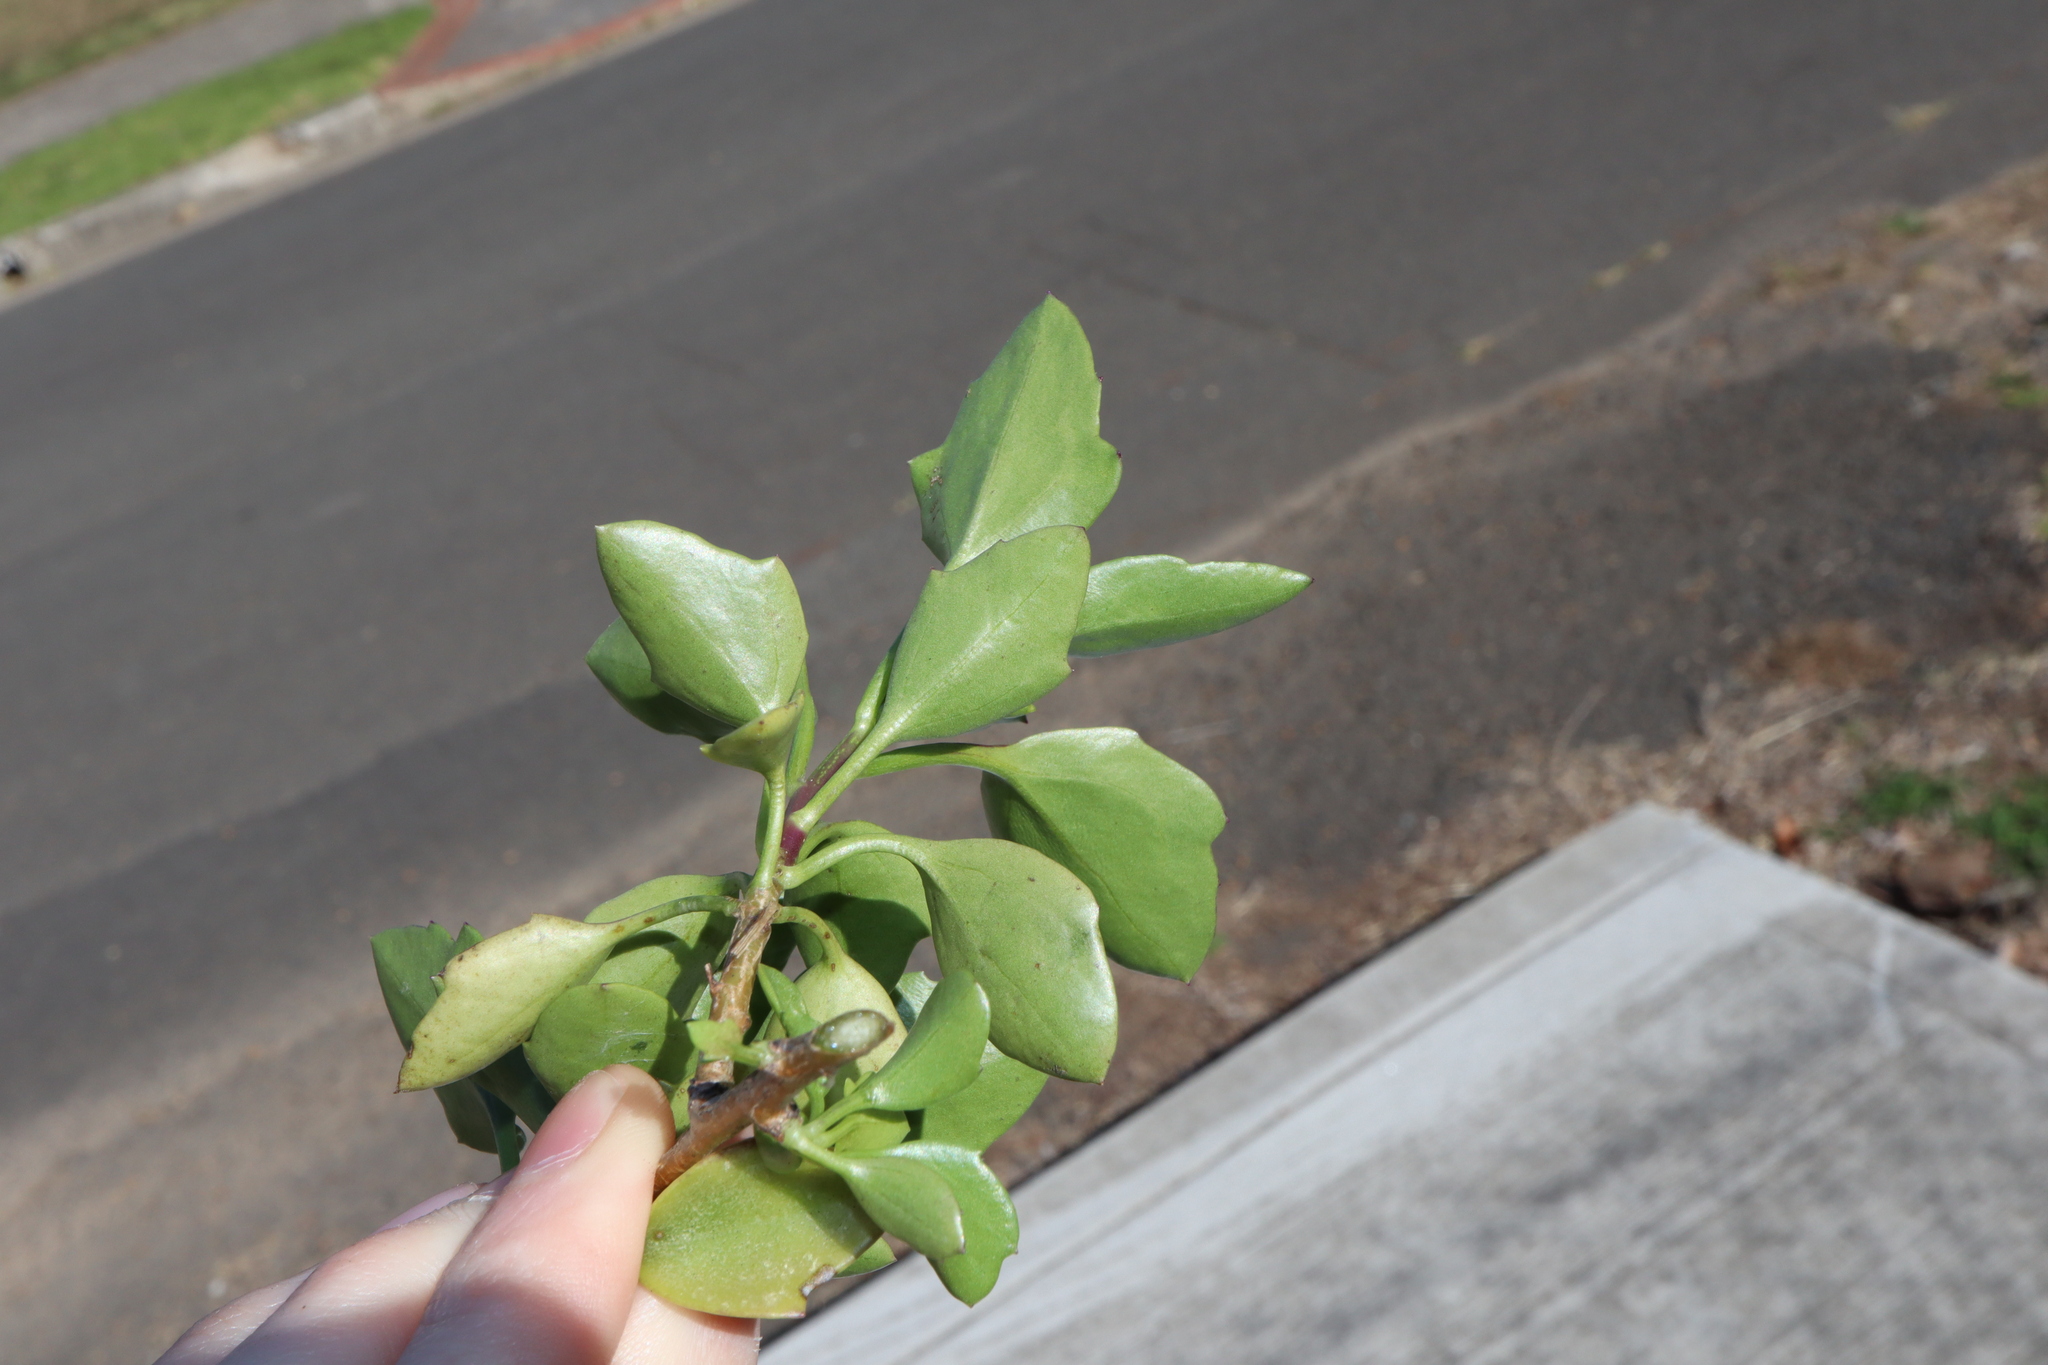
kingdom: Plantae
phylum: Tracheophyta
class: Magnoliopsida
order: Asterales
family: Asteraceae
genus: Senecio
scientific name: Senecio angulatus
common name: Climbing groundsel
